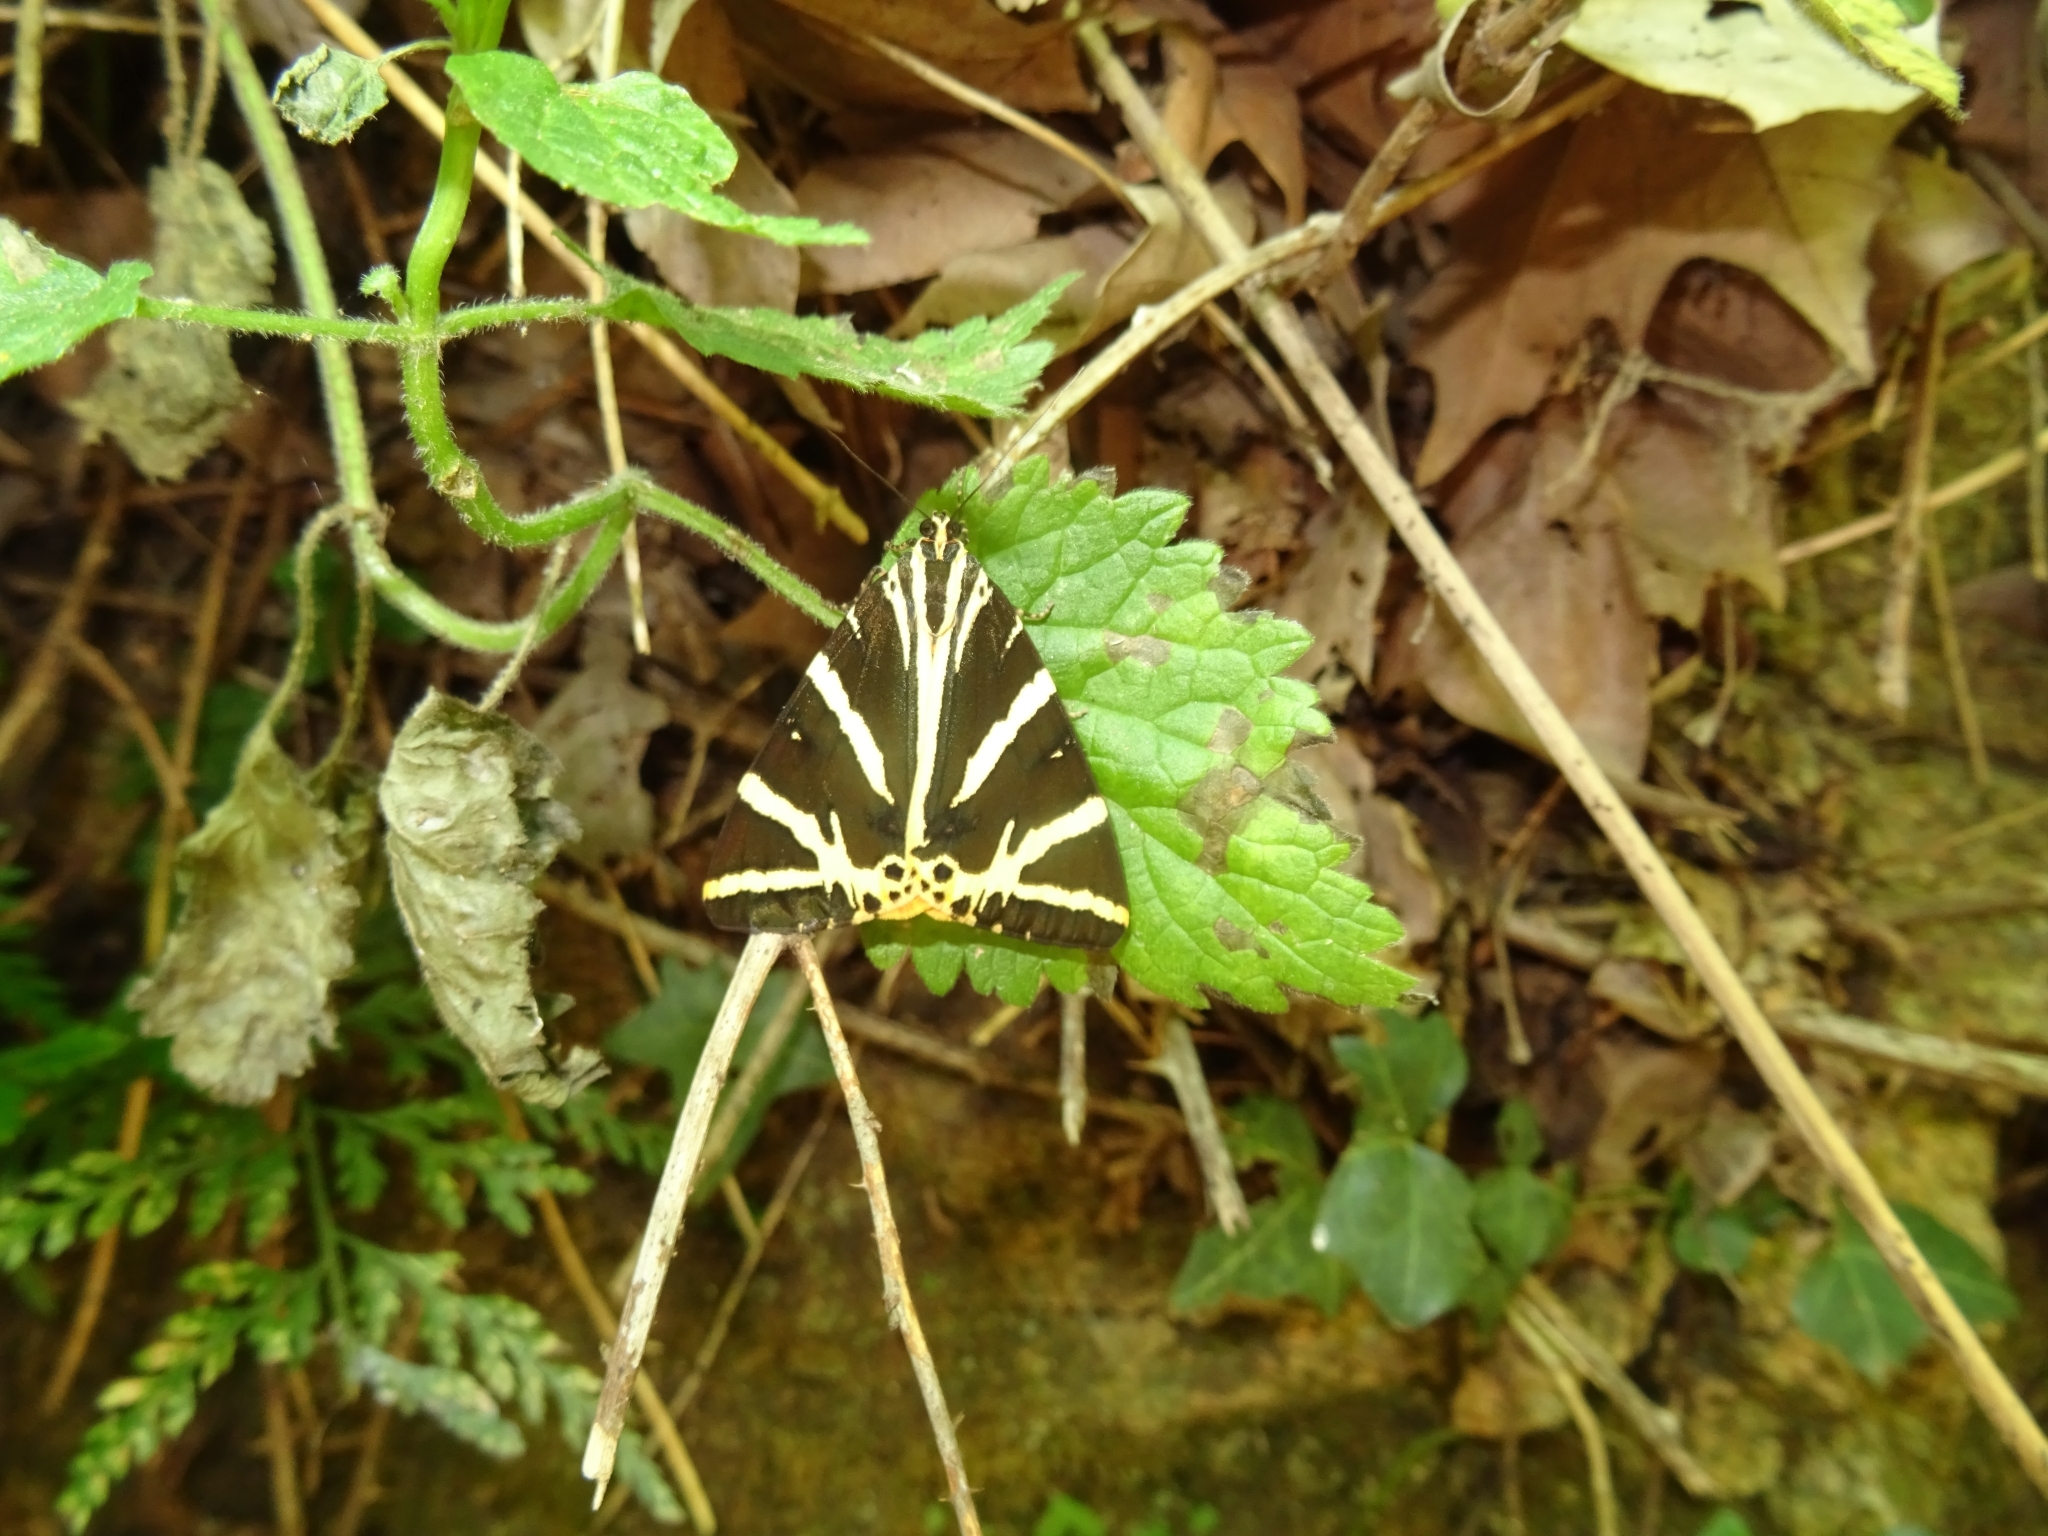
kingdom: Animalia
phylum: Arthropoda
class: Insecta
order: Lepidoptera
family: Erebidae
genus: Euplagia
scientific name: Euplagia quadripunctaria
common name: Jersey tiger
